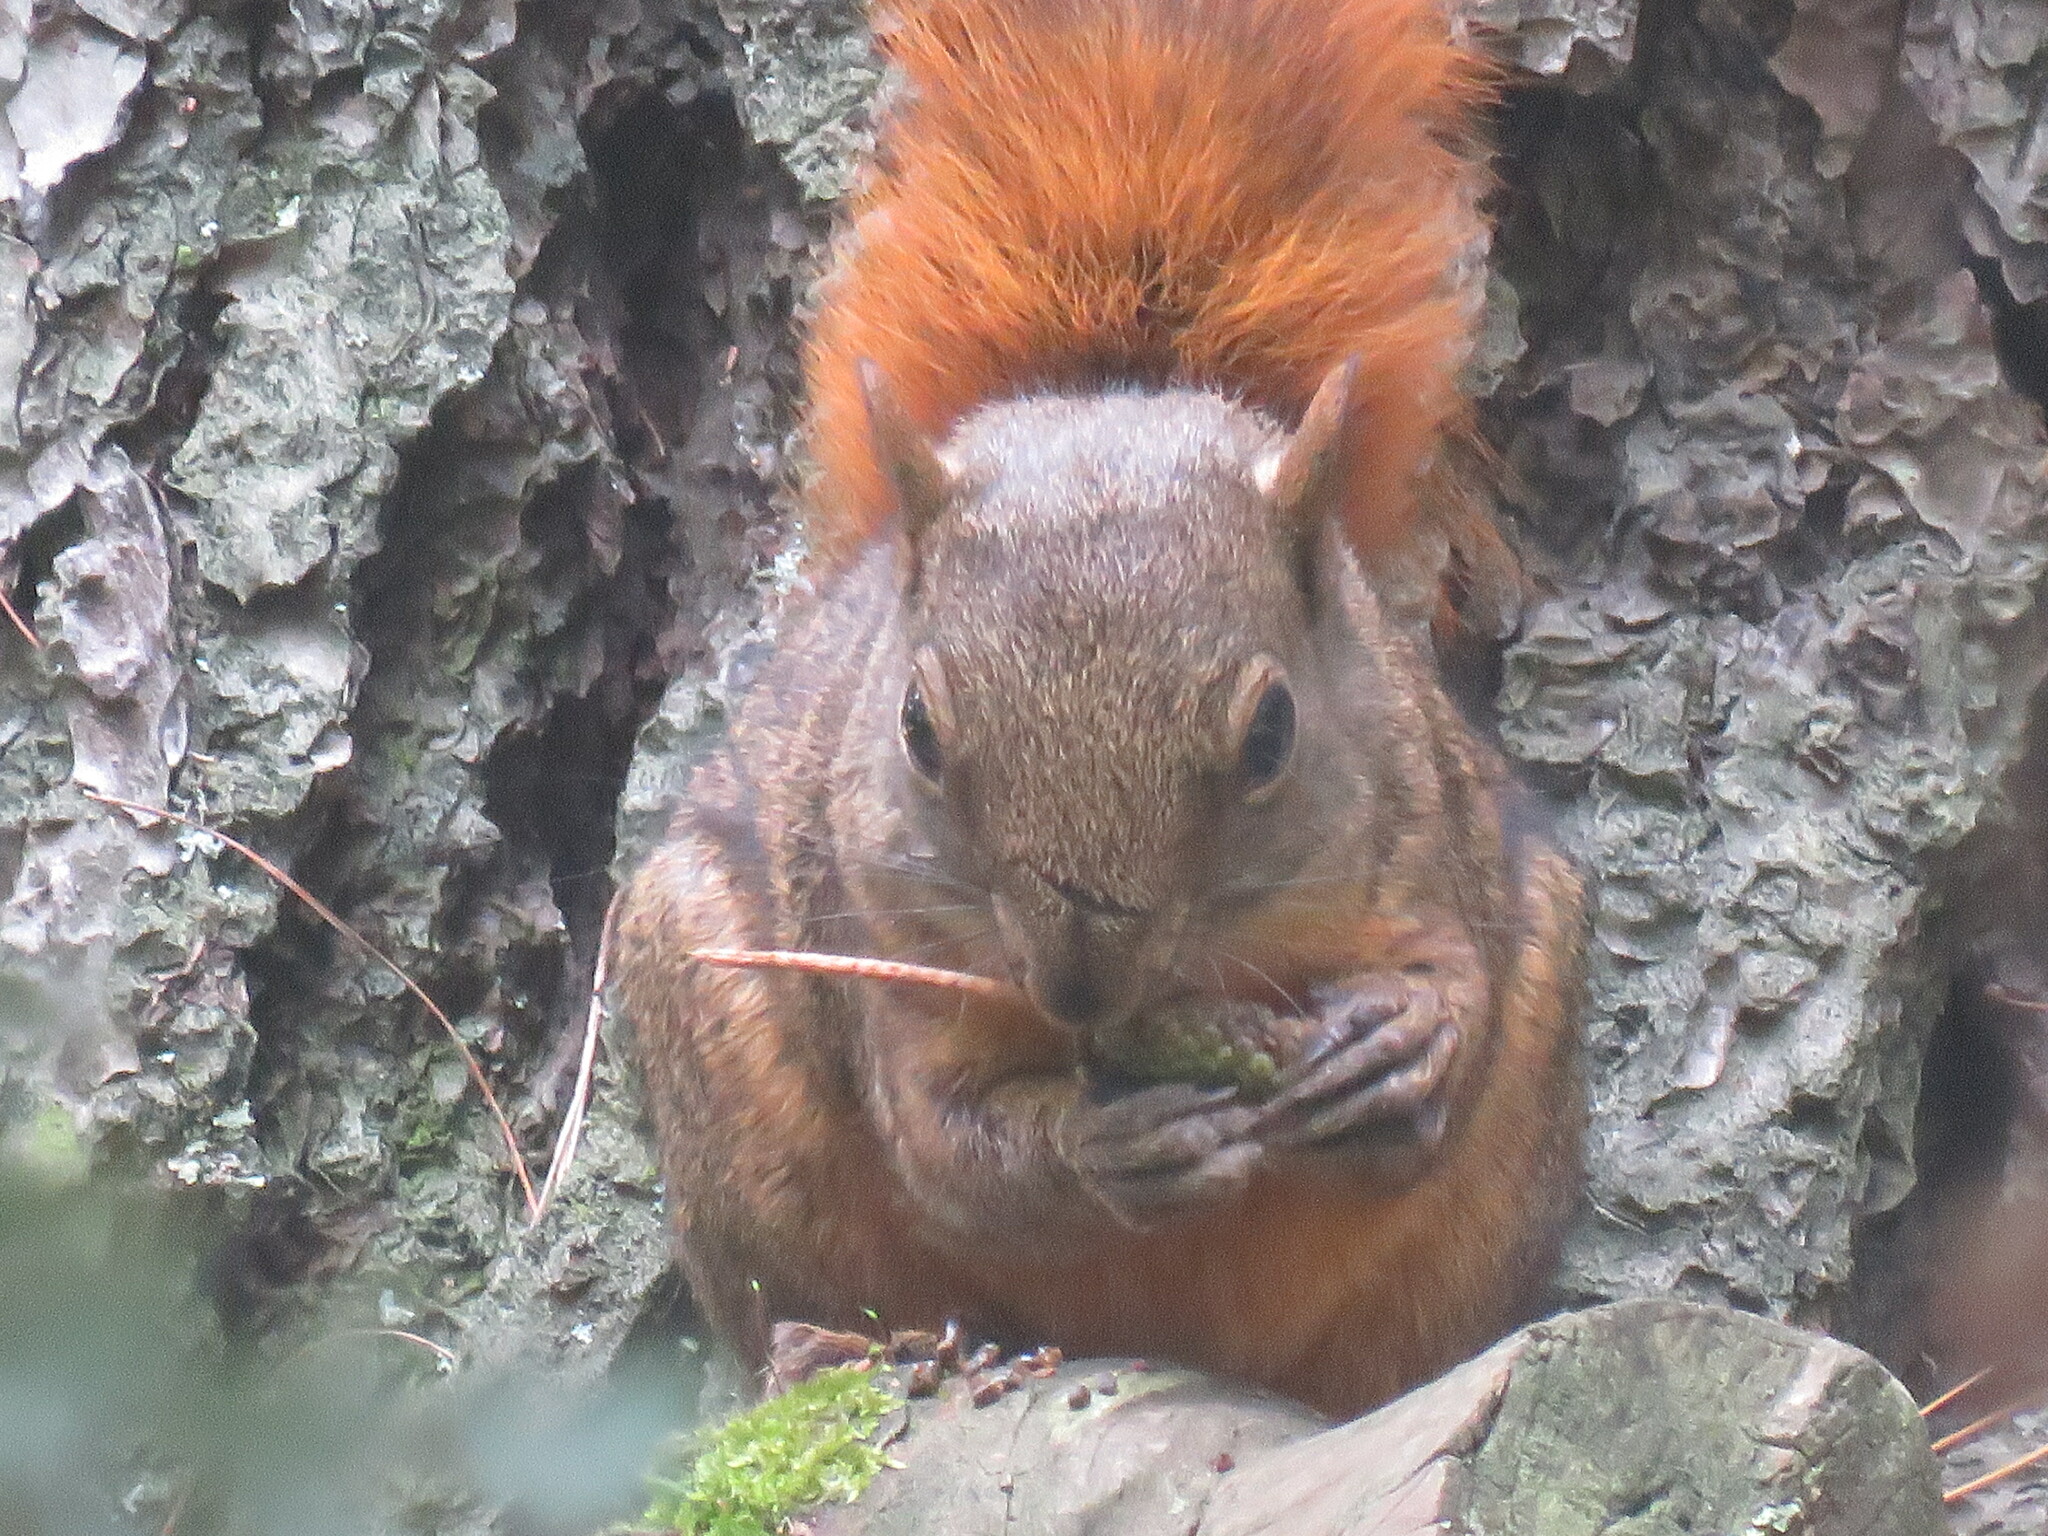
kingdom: Animalia
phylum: Chordata
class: Mammalia
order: Rodentia
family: Sciuridae
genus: Sciurus
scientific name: Sciurus granatensis
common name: Red-tailed squirrel
